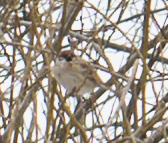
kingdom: Animalia
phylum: Chordata
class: Aves
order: Passeriformes
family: Passeridae
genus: Passer
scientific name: Passer montanus
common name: Eurasian tree sparrow
